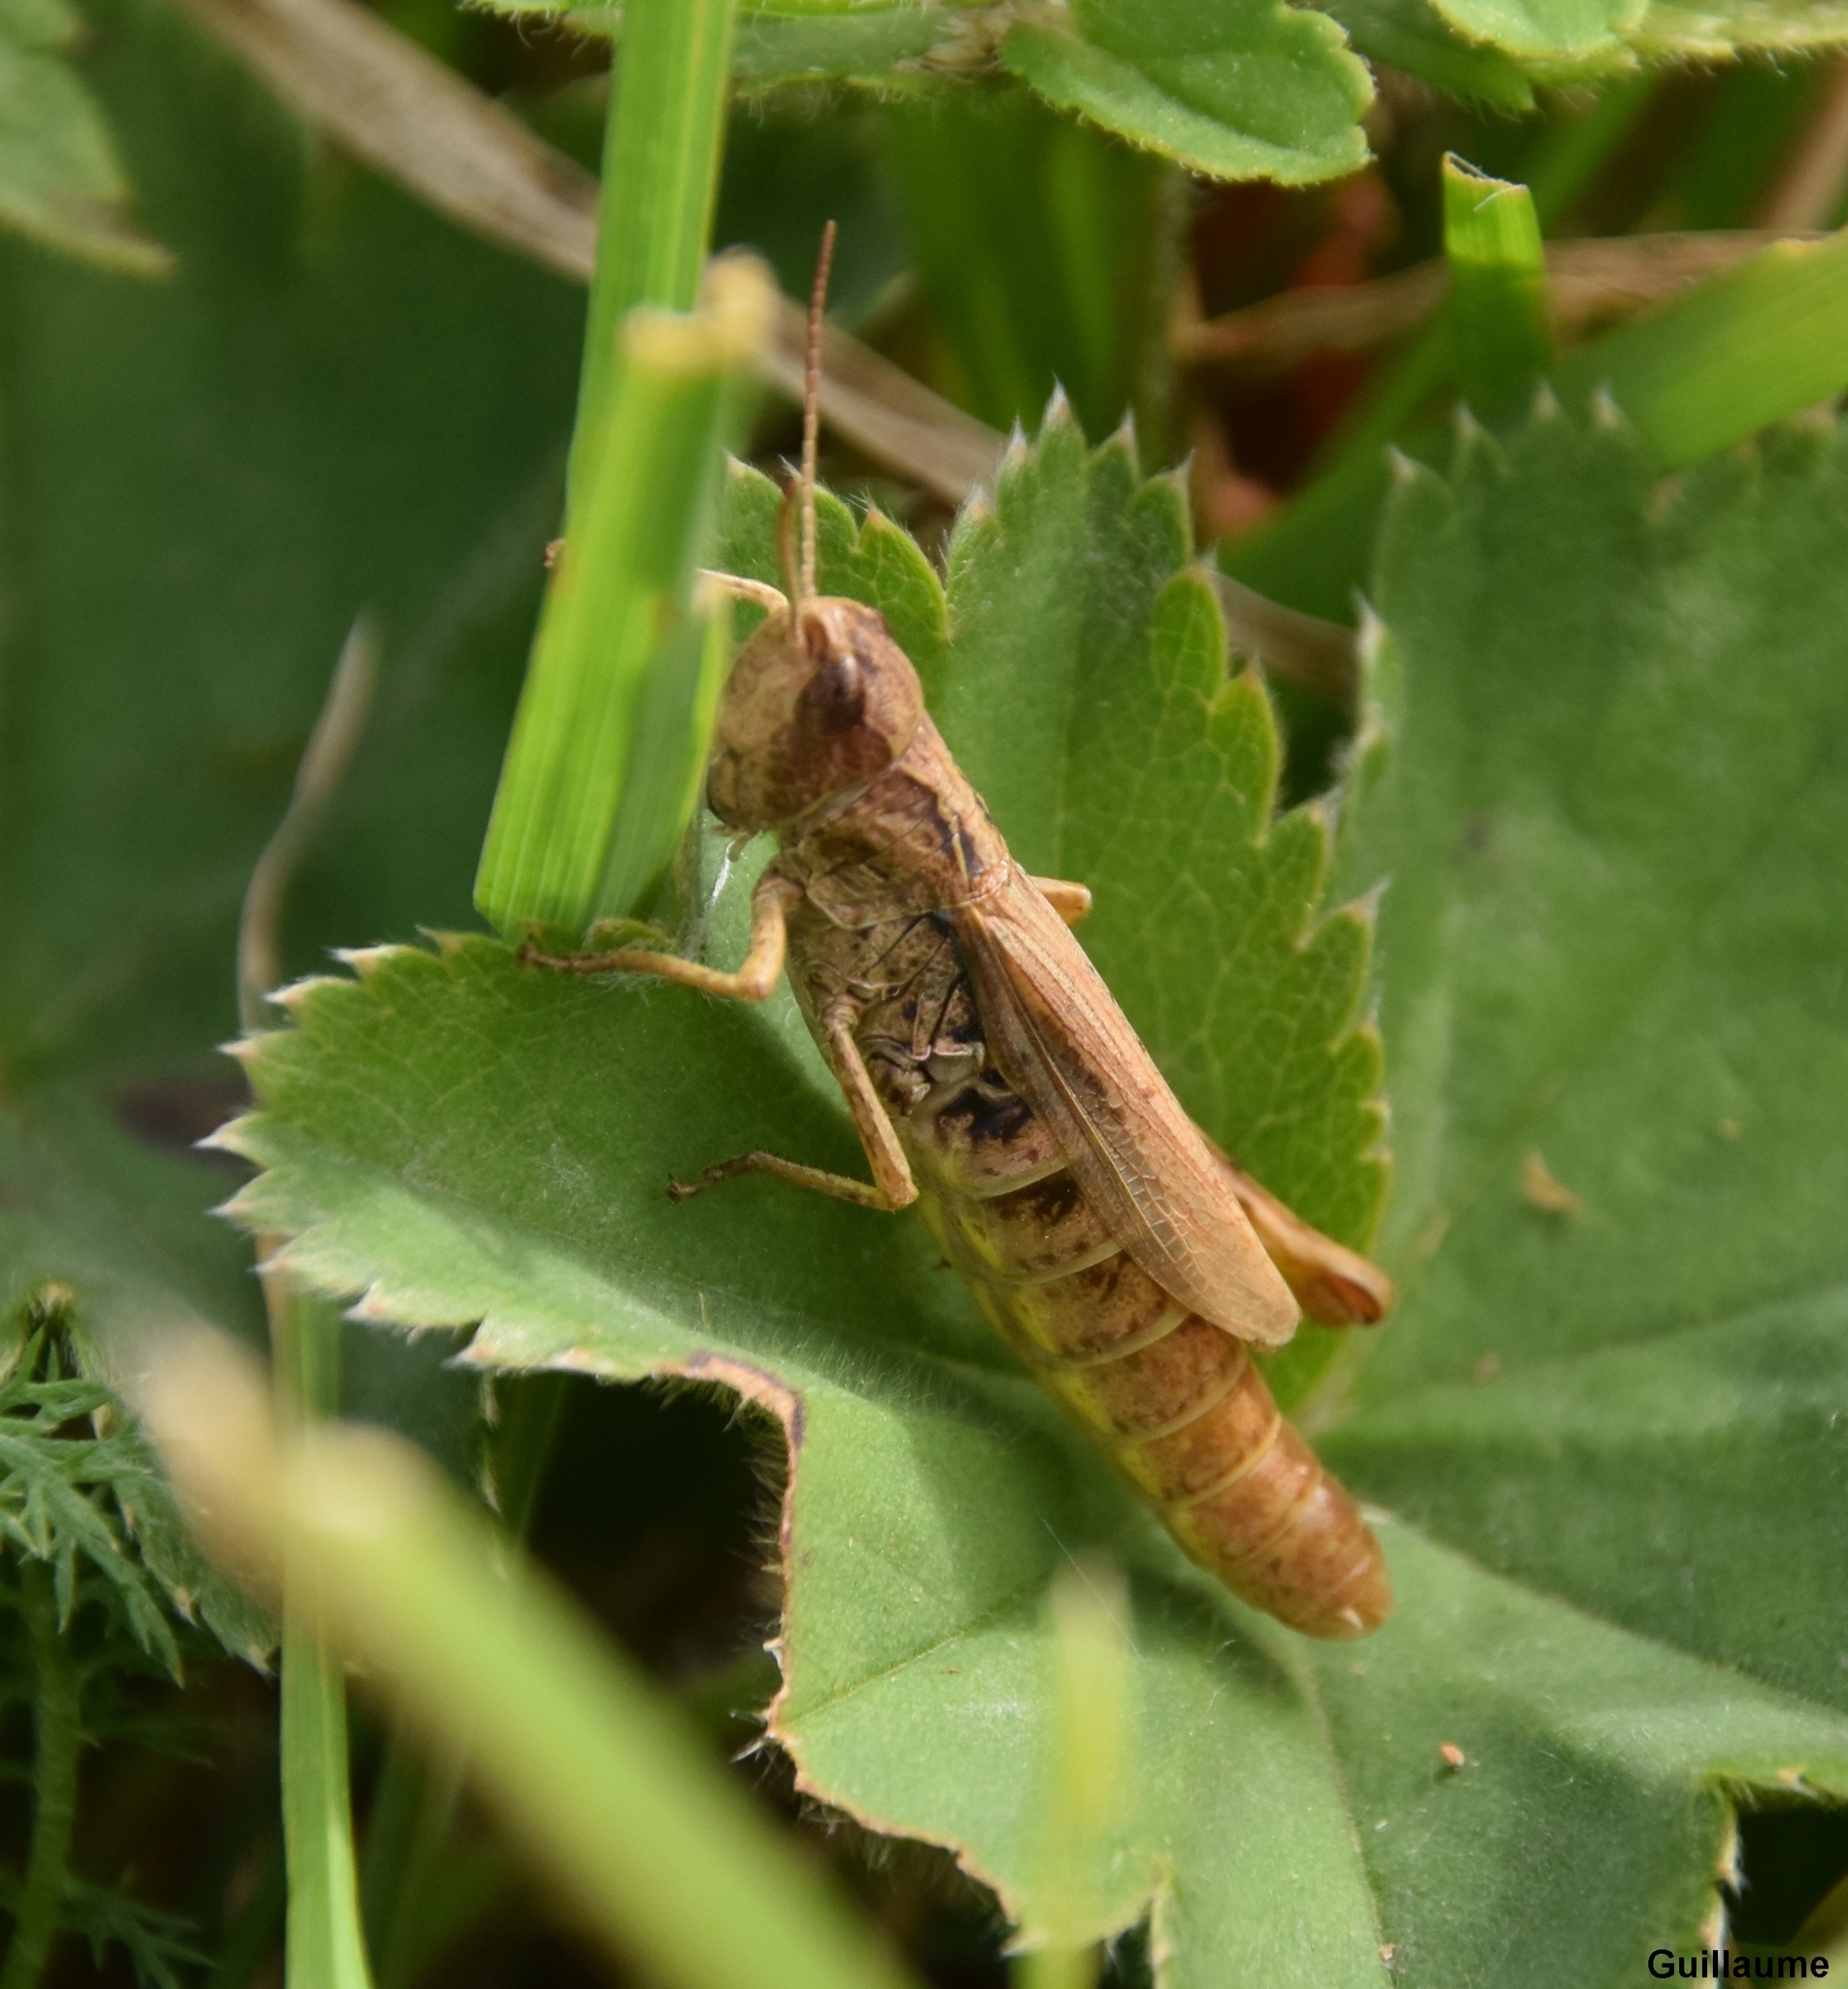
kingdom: Animalia
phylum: Arthropoda
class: Insecta
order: Orthoptera
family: Acrididae
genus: Chorthippus
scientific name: Chorthippus apricarius
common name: Upland field grasshopper
